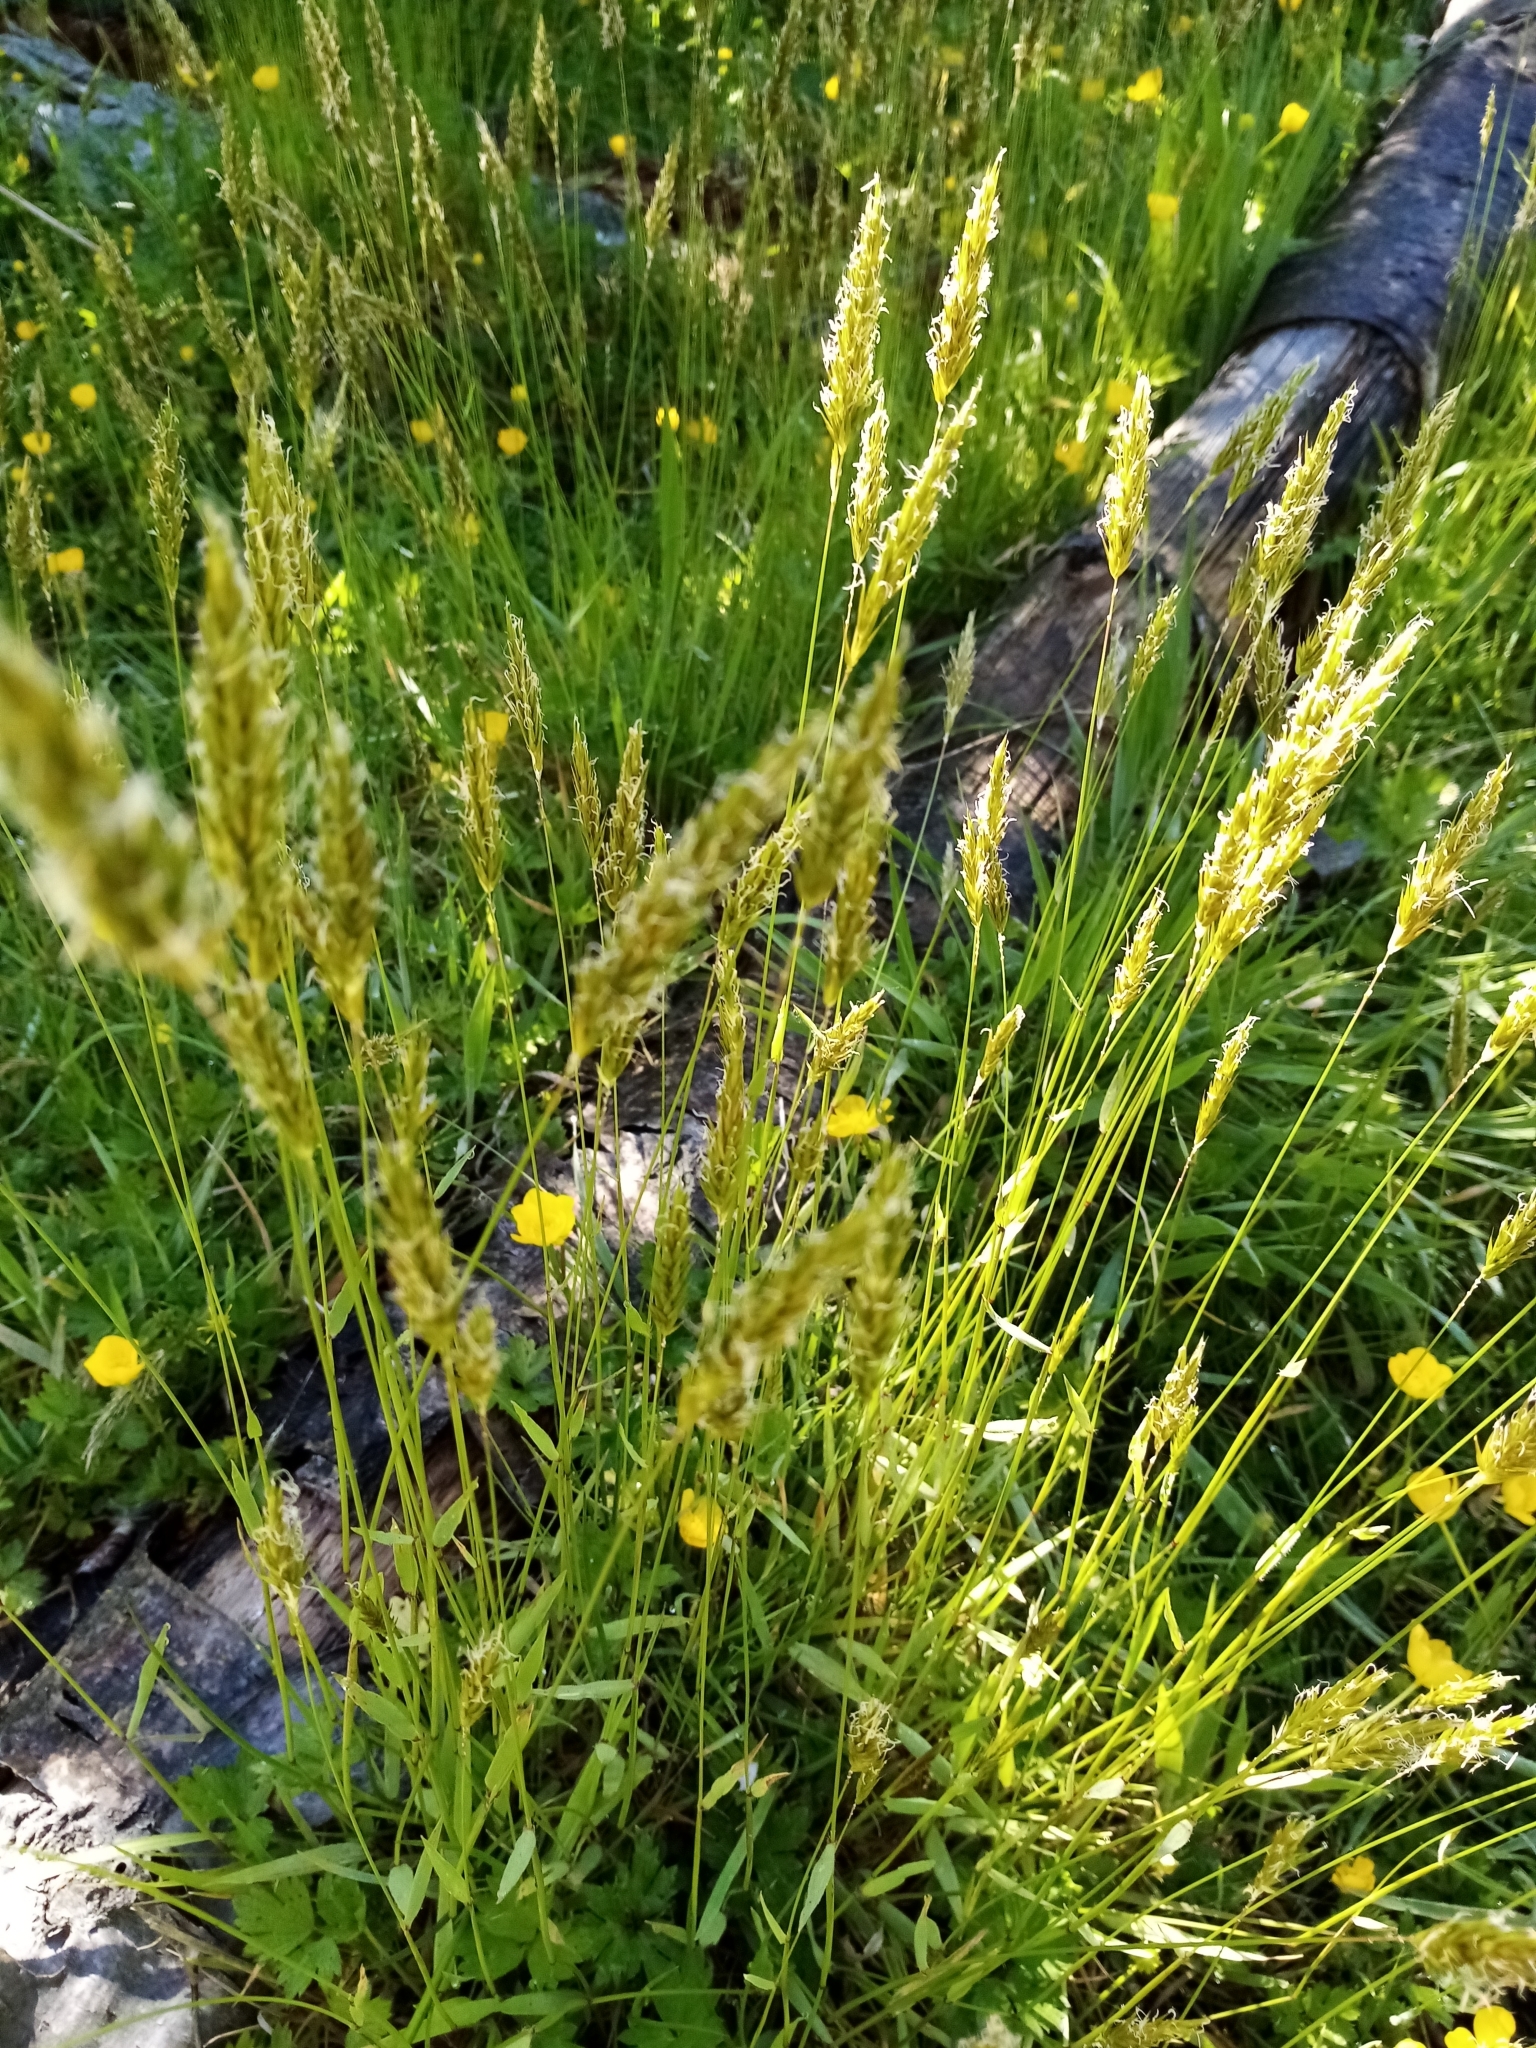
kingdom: Plantae
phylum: Tracheophyta
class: Liliopsida
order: Poales
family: Poaceae
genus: Anthoxanthum
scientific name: Anthoxanthum odoratum
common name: Sweet vernalgrass
